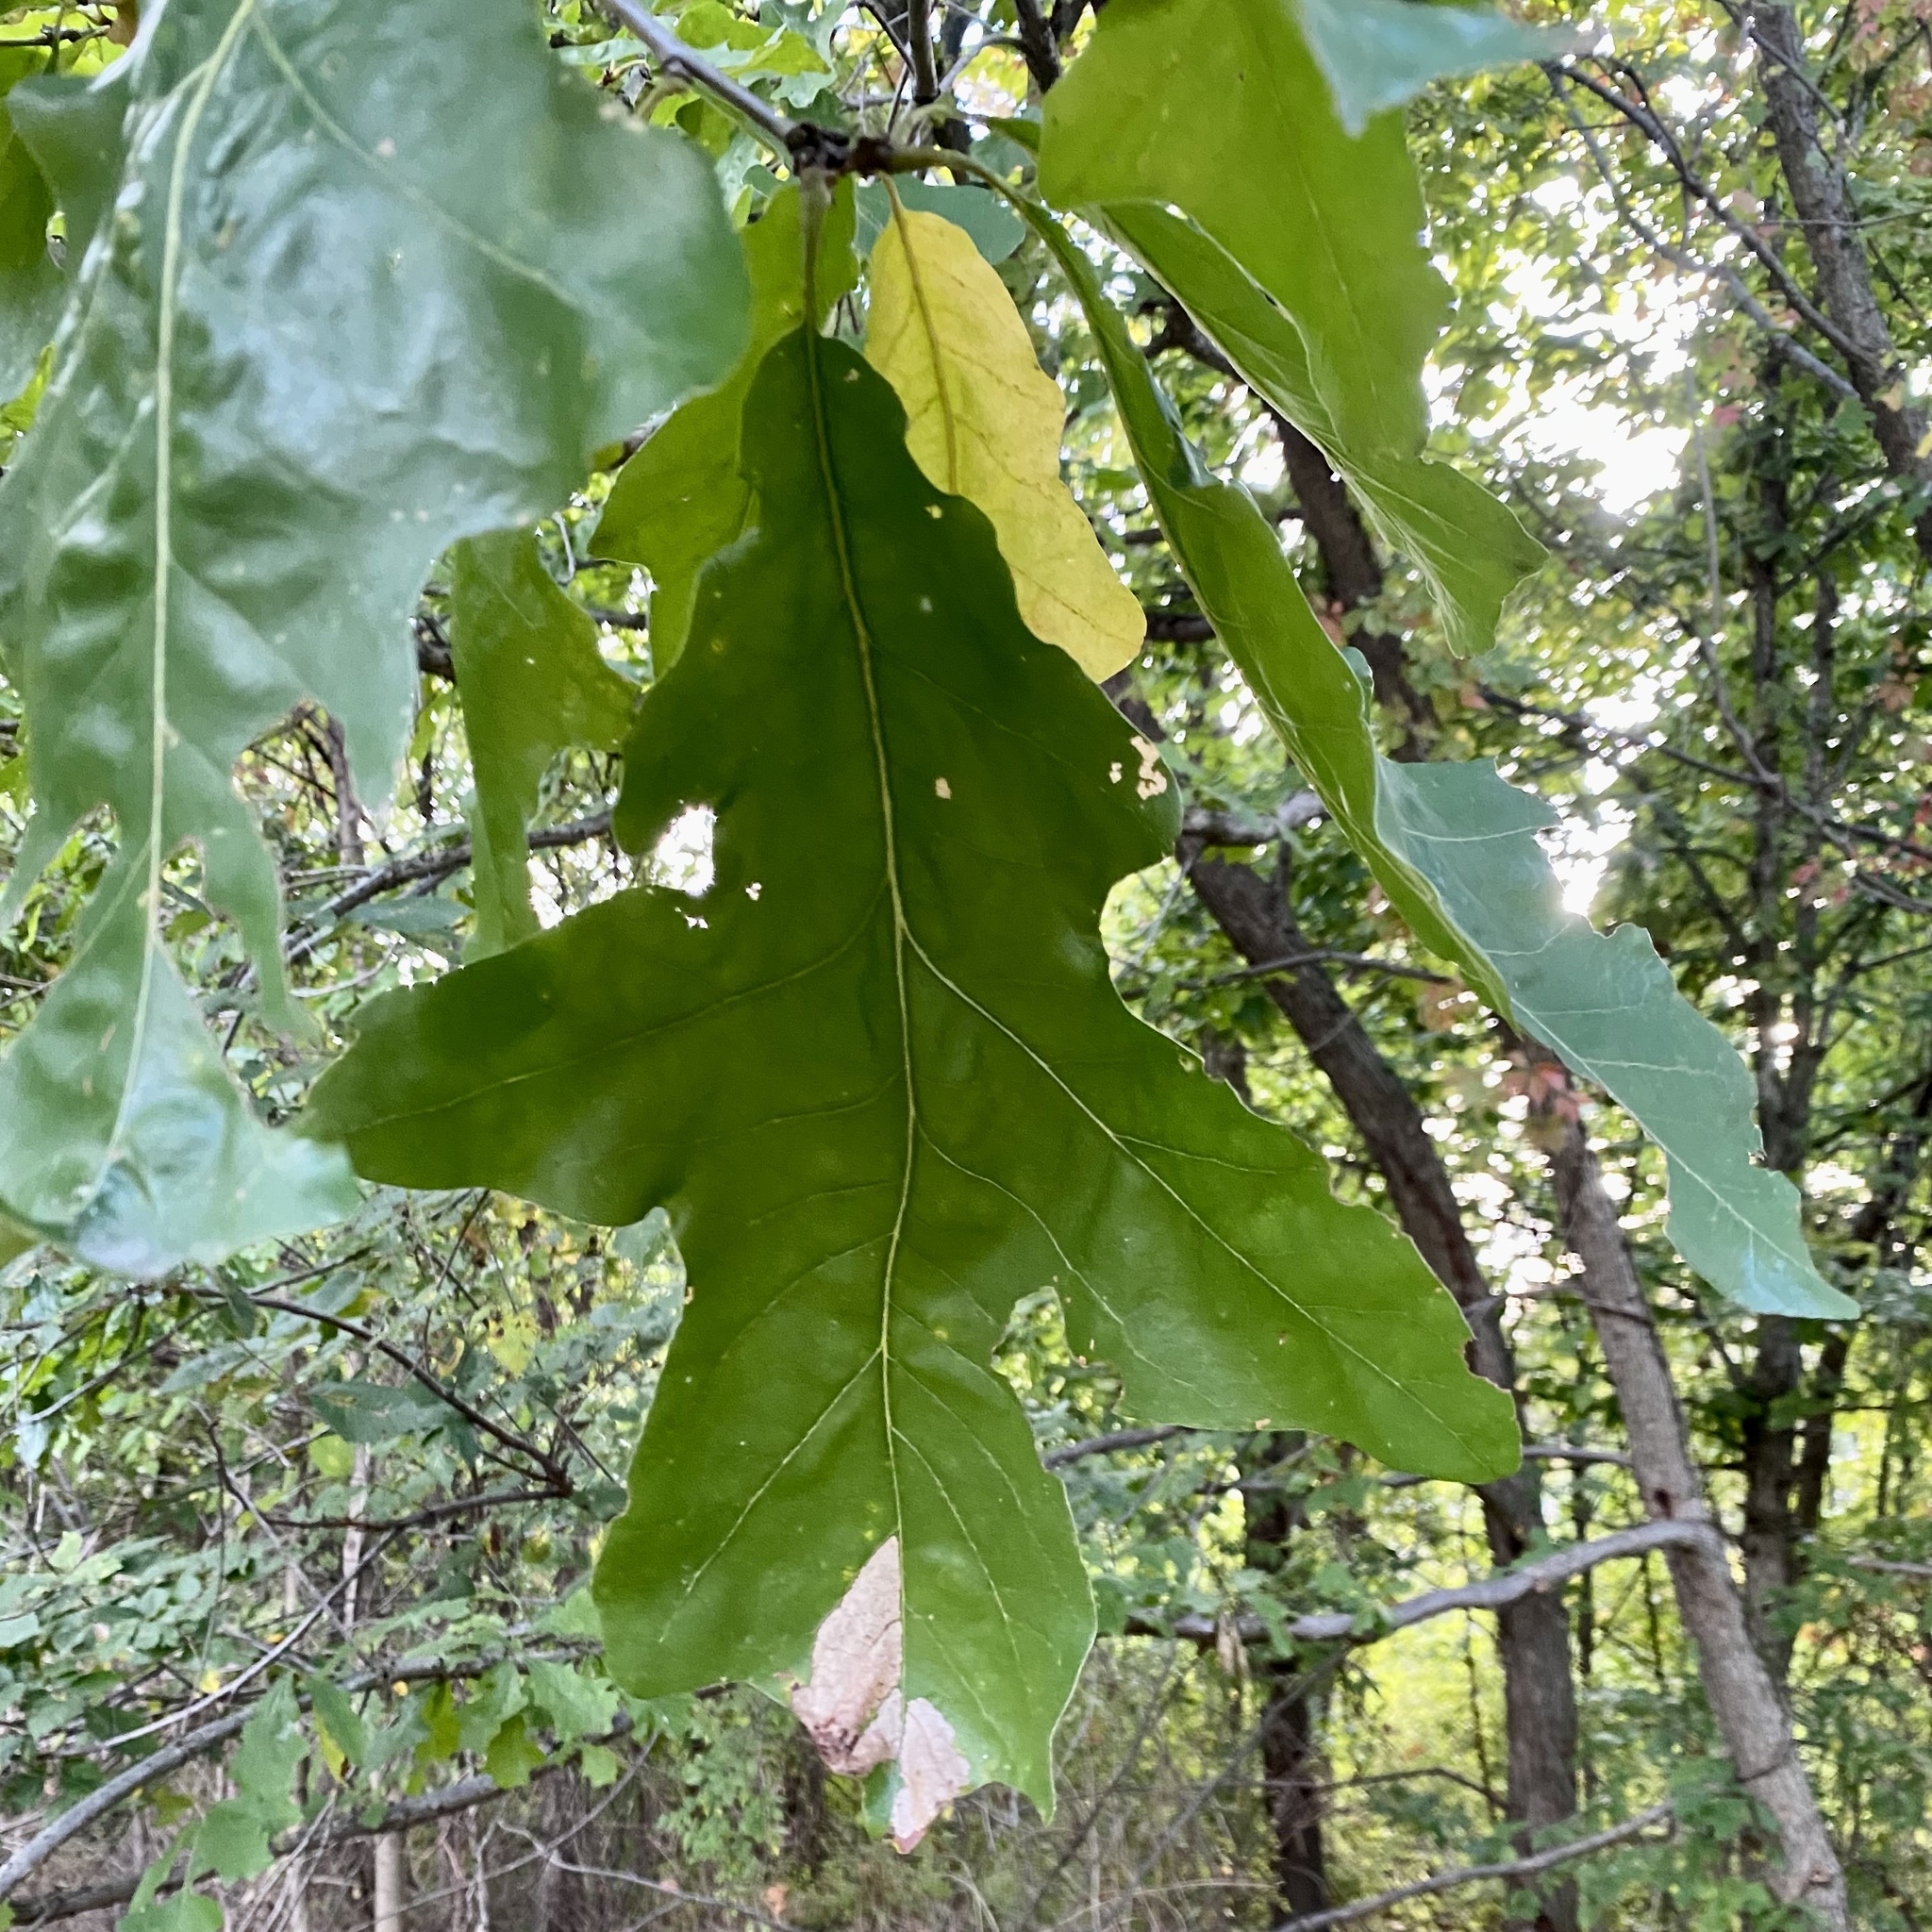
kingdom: Plantae
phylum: Tracheophyta
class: Magnoliopsida
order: Fagales
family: Fagaceae
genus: Quercus
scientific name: Quercus lyrata
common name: Overcup oak
